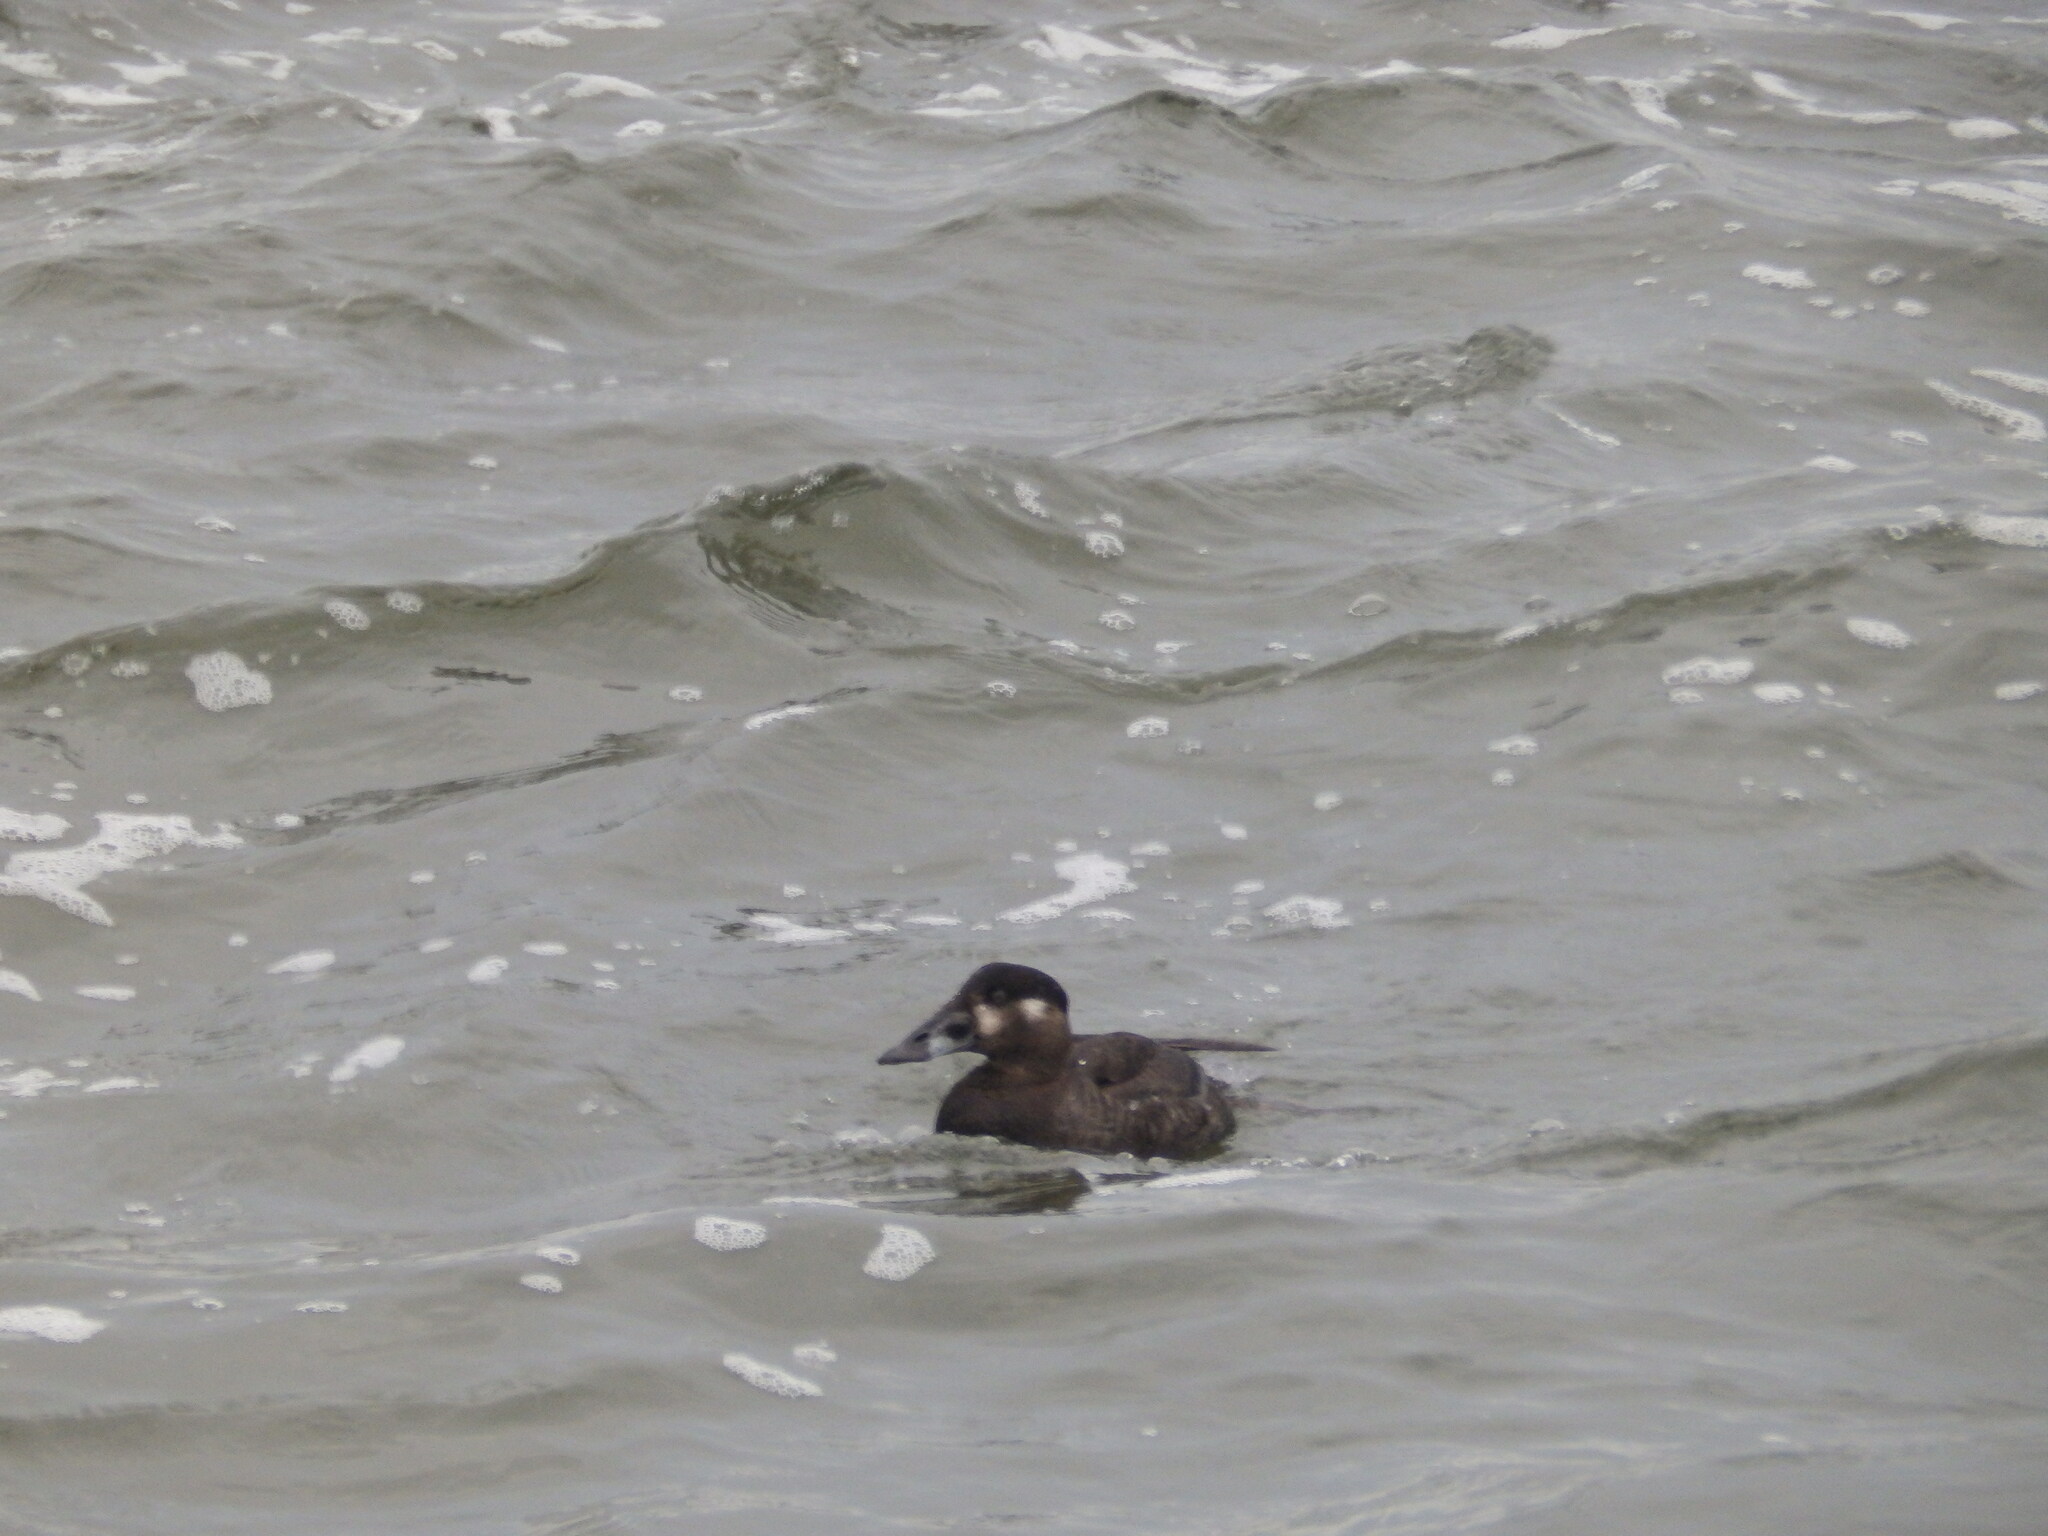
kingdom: Animalia
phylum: Chordata
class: Aves
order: Anseriformes
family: Anatidae
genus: Melanitta
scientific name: Melanitta perspicillata
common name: Surf scoter
